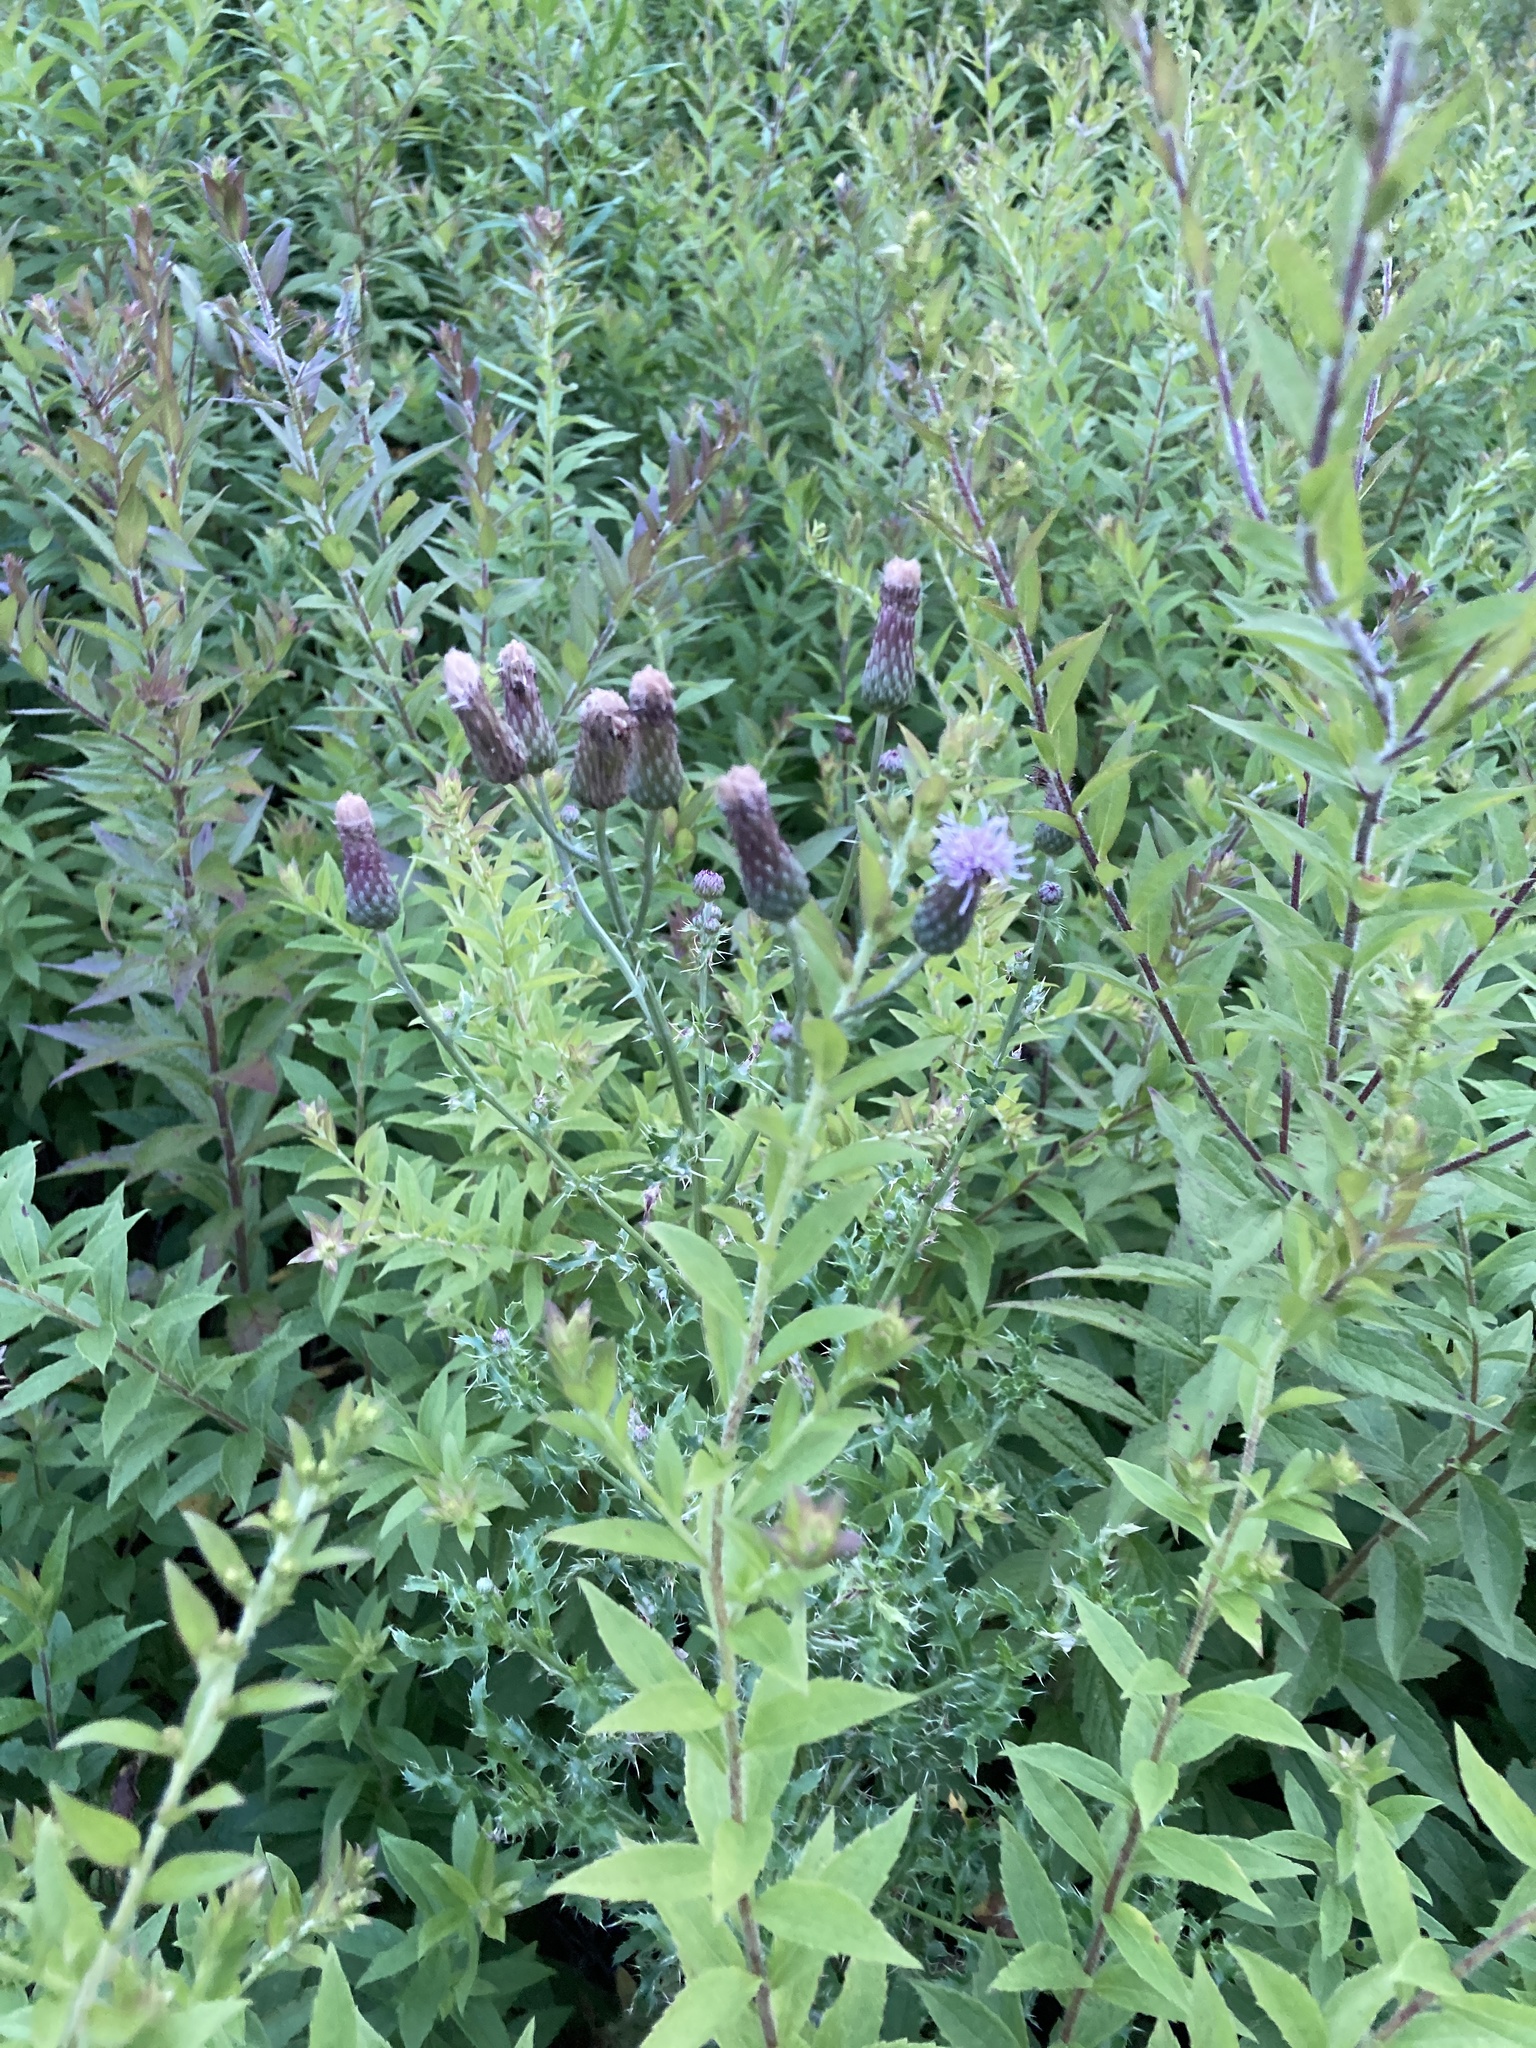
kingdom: Plantae
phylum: Tracheophyta
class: Magnoliopsida
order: Asterales
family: Asteraceae
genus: Cirsium
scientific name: Cirsium arvense
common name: Creeping thistle
